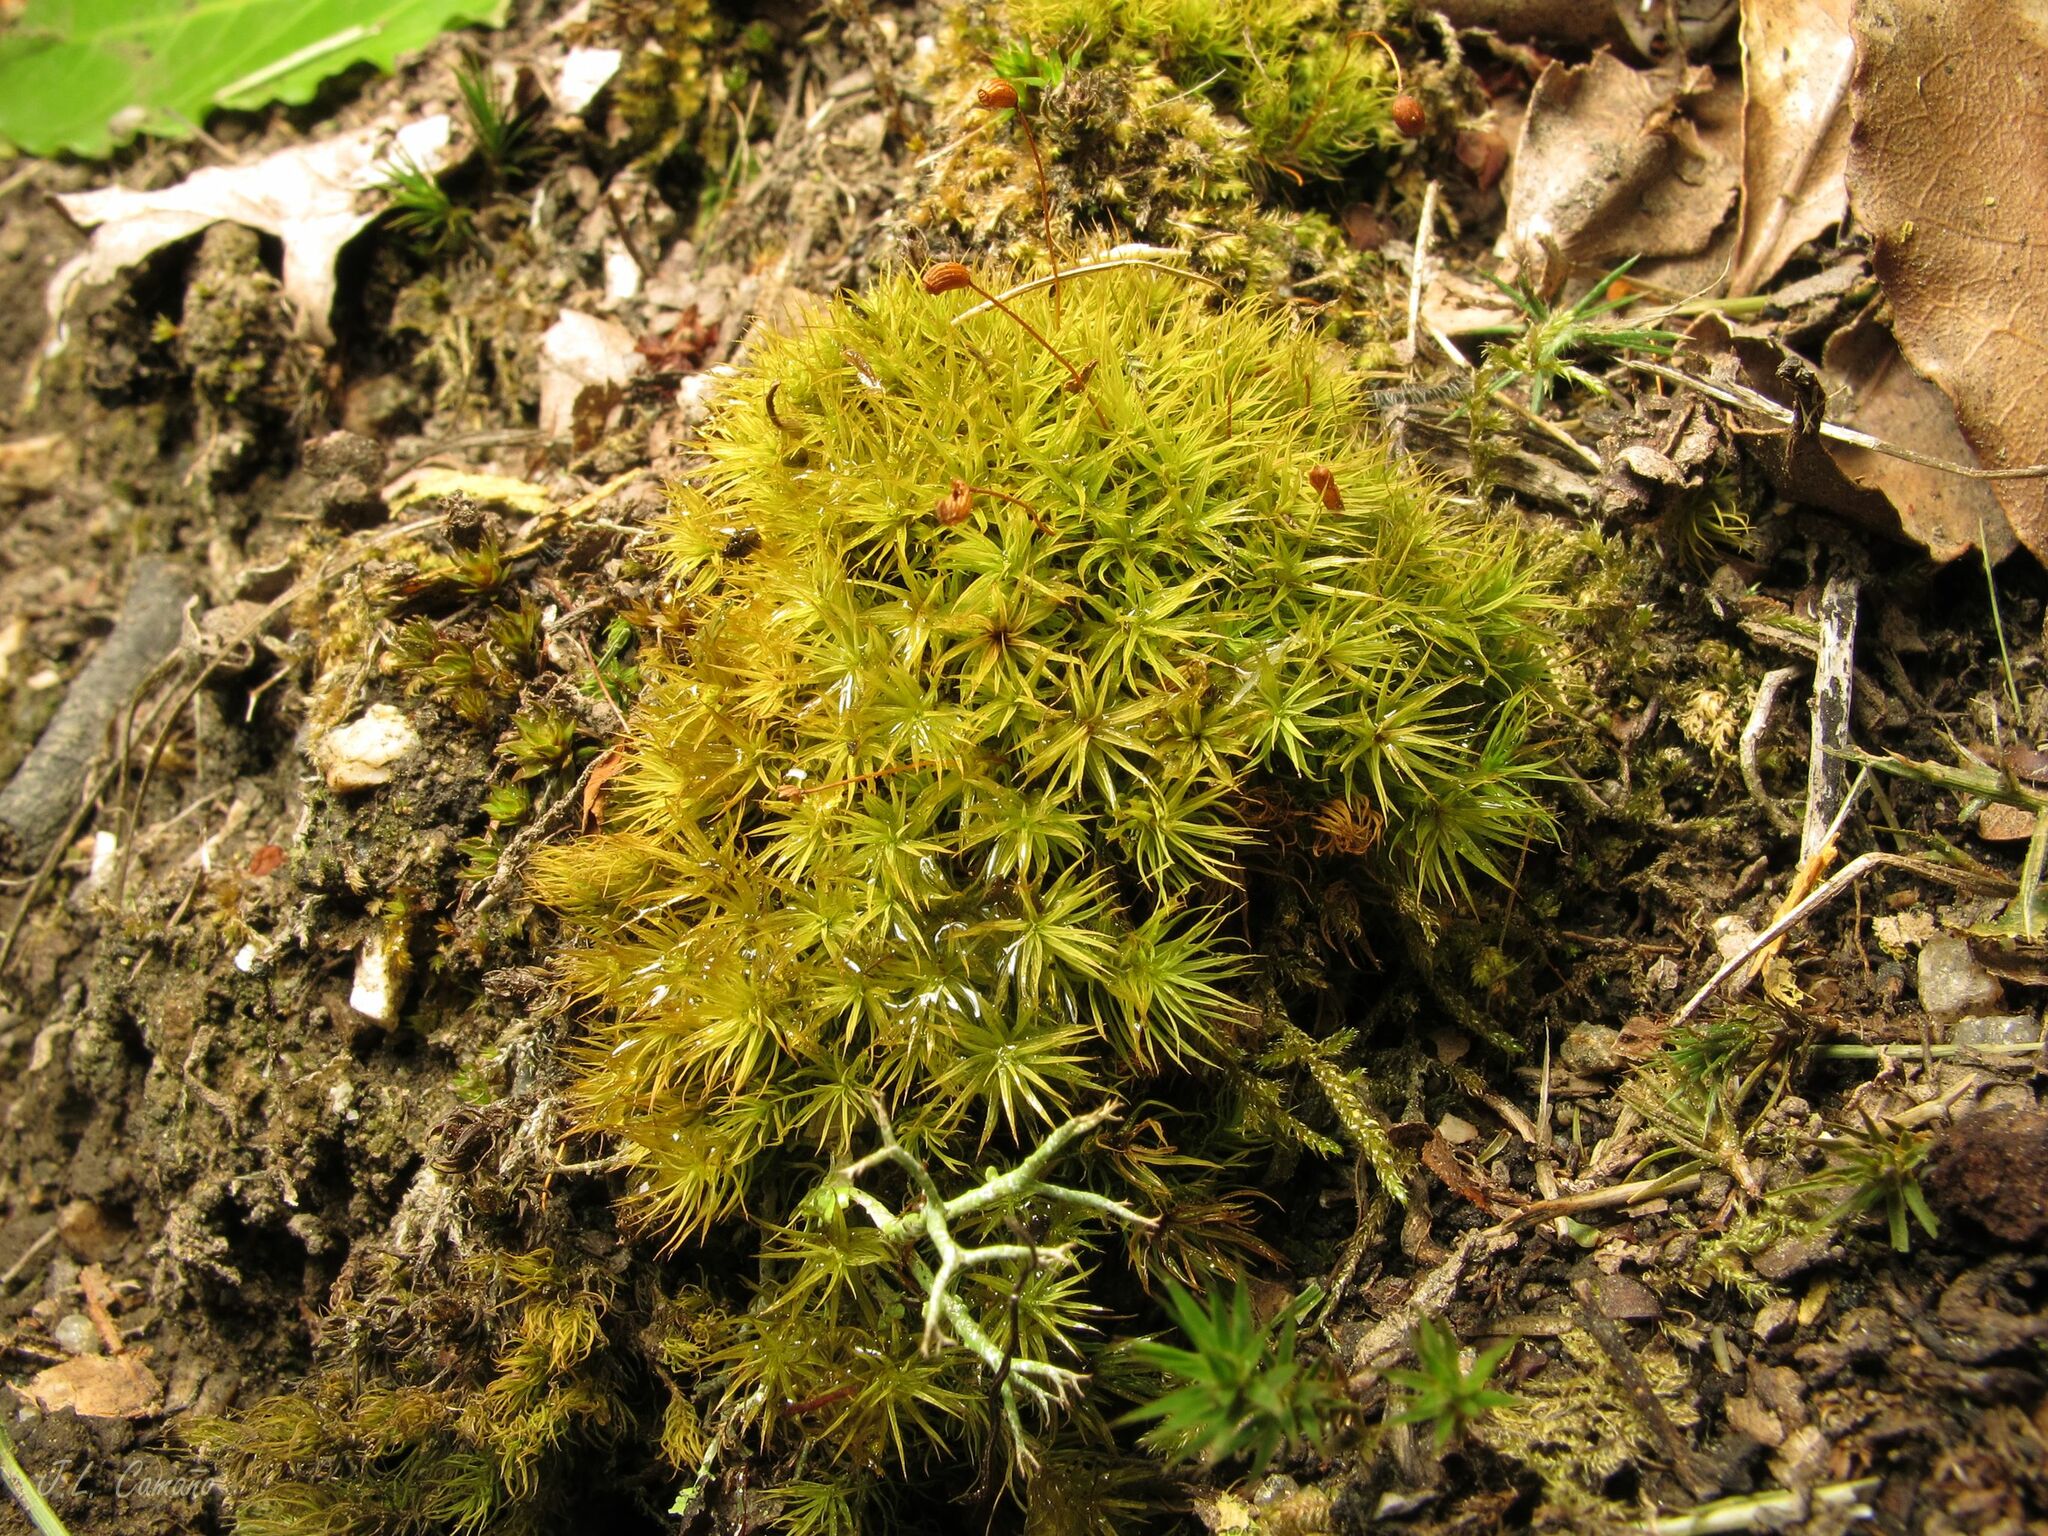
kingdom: Plantae
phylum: Bryophyta
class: Bryopsida
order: Bartramiales
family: Bartramiaceae
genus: Bartramia
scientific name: Bartramia ithyphylla
